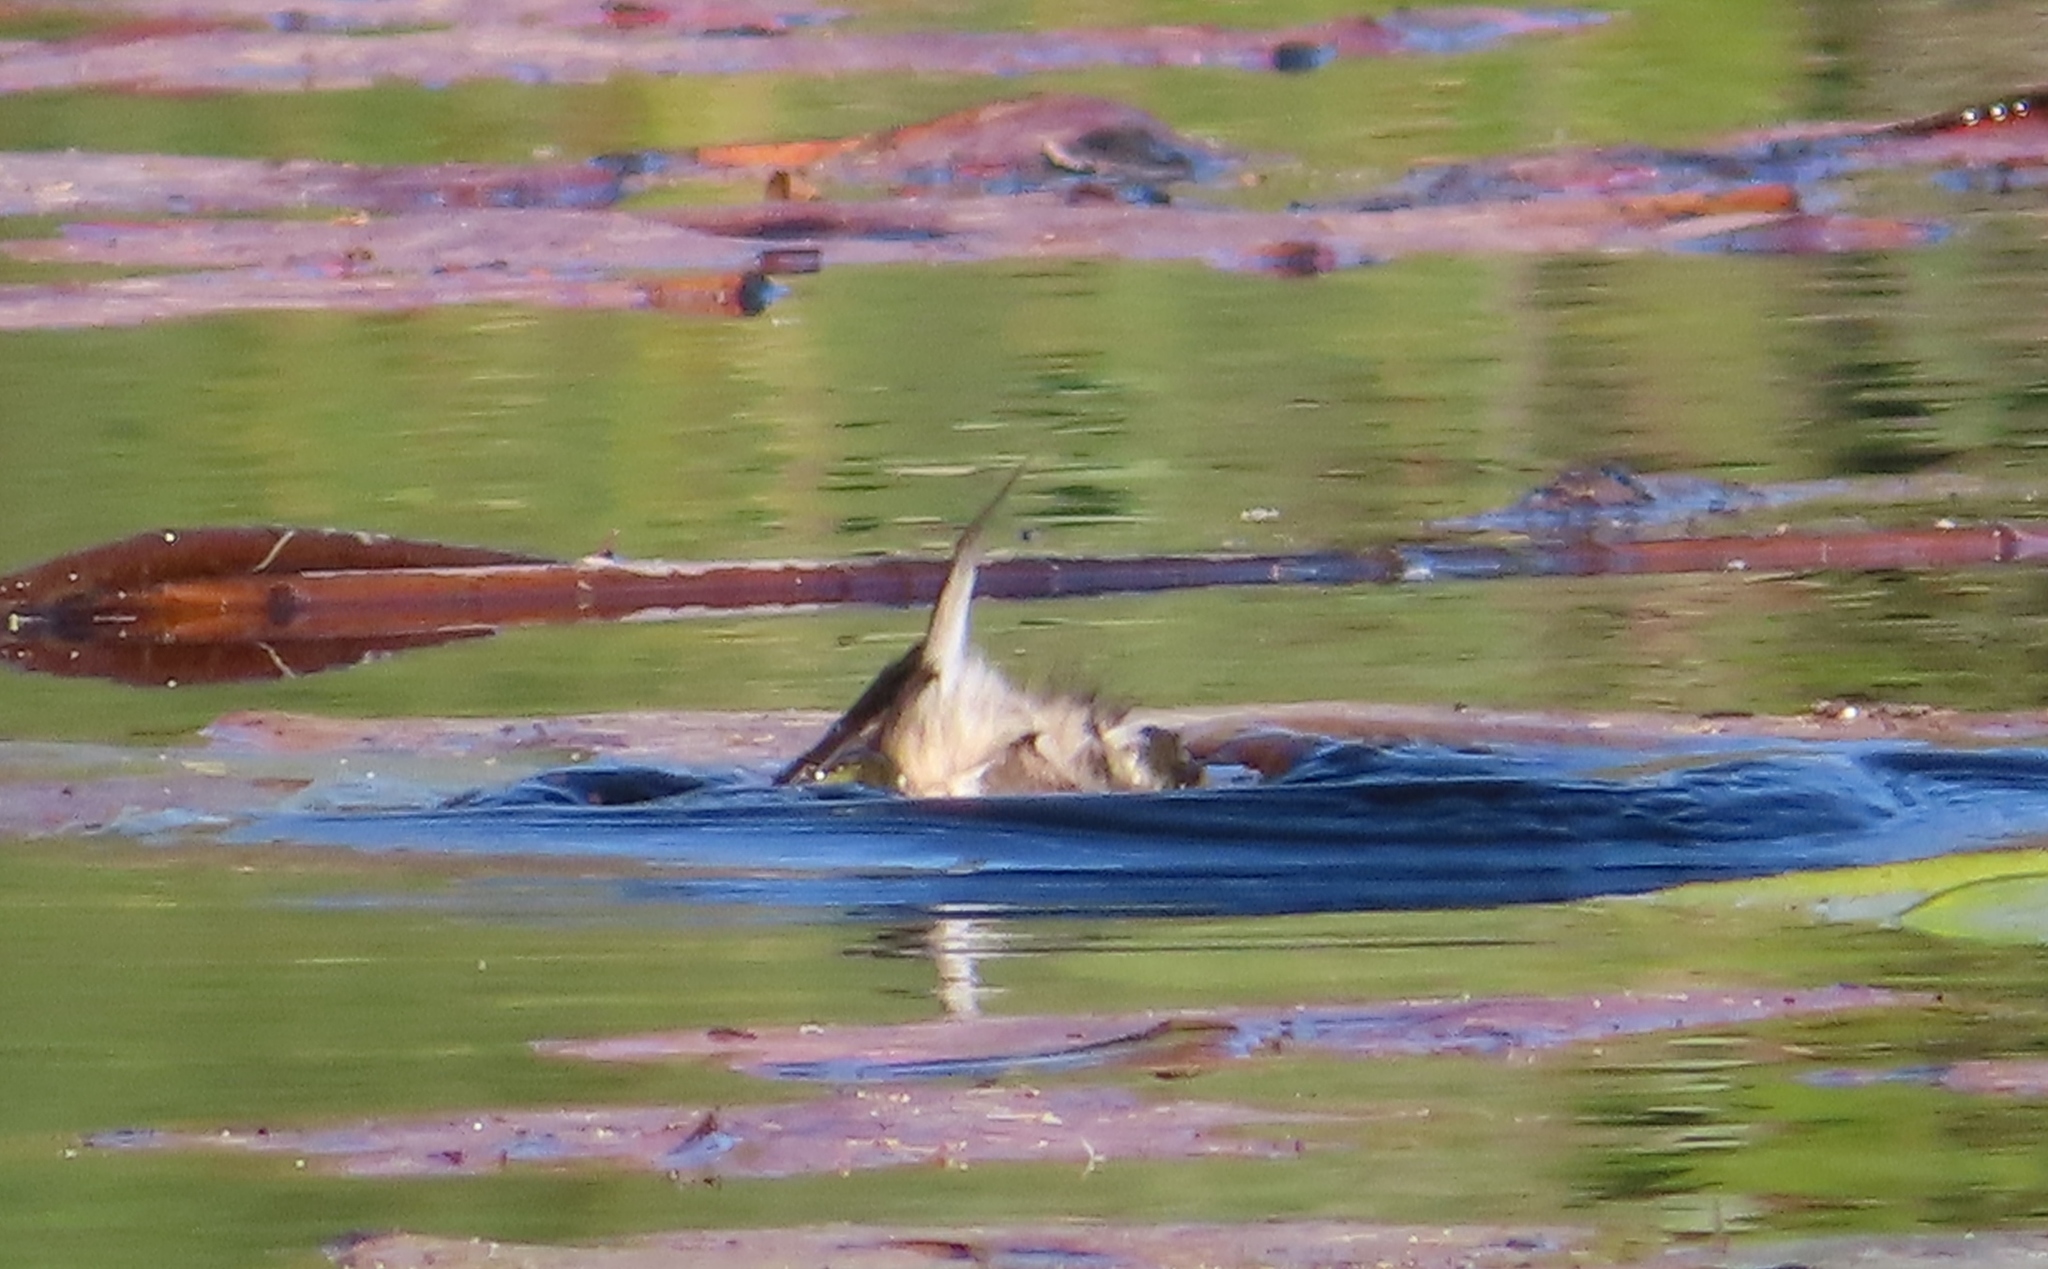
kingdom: Animalia
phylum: Chordata
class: Aves
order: Podicipediformes
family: Podicipedidae
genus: Tachybaptus
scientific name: Tachybaptus ruficollis
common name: Little grebe
